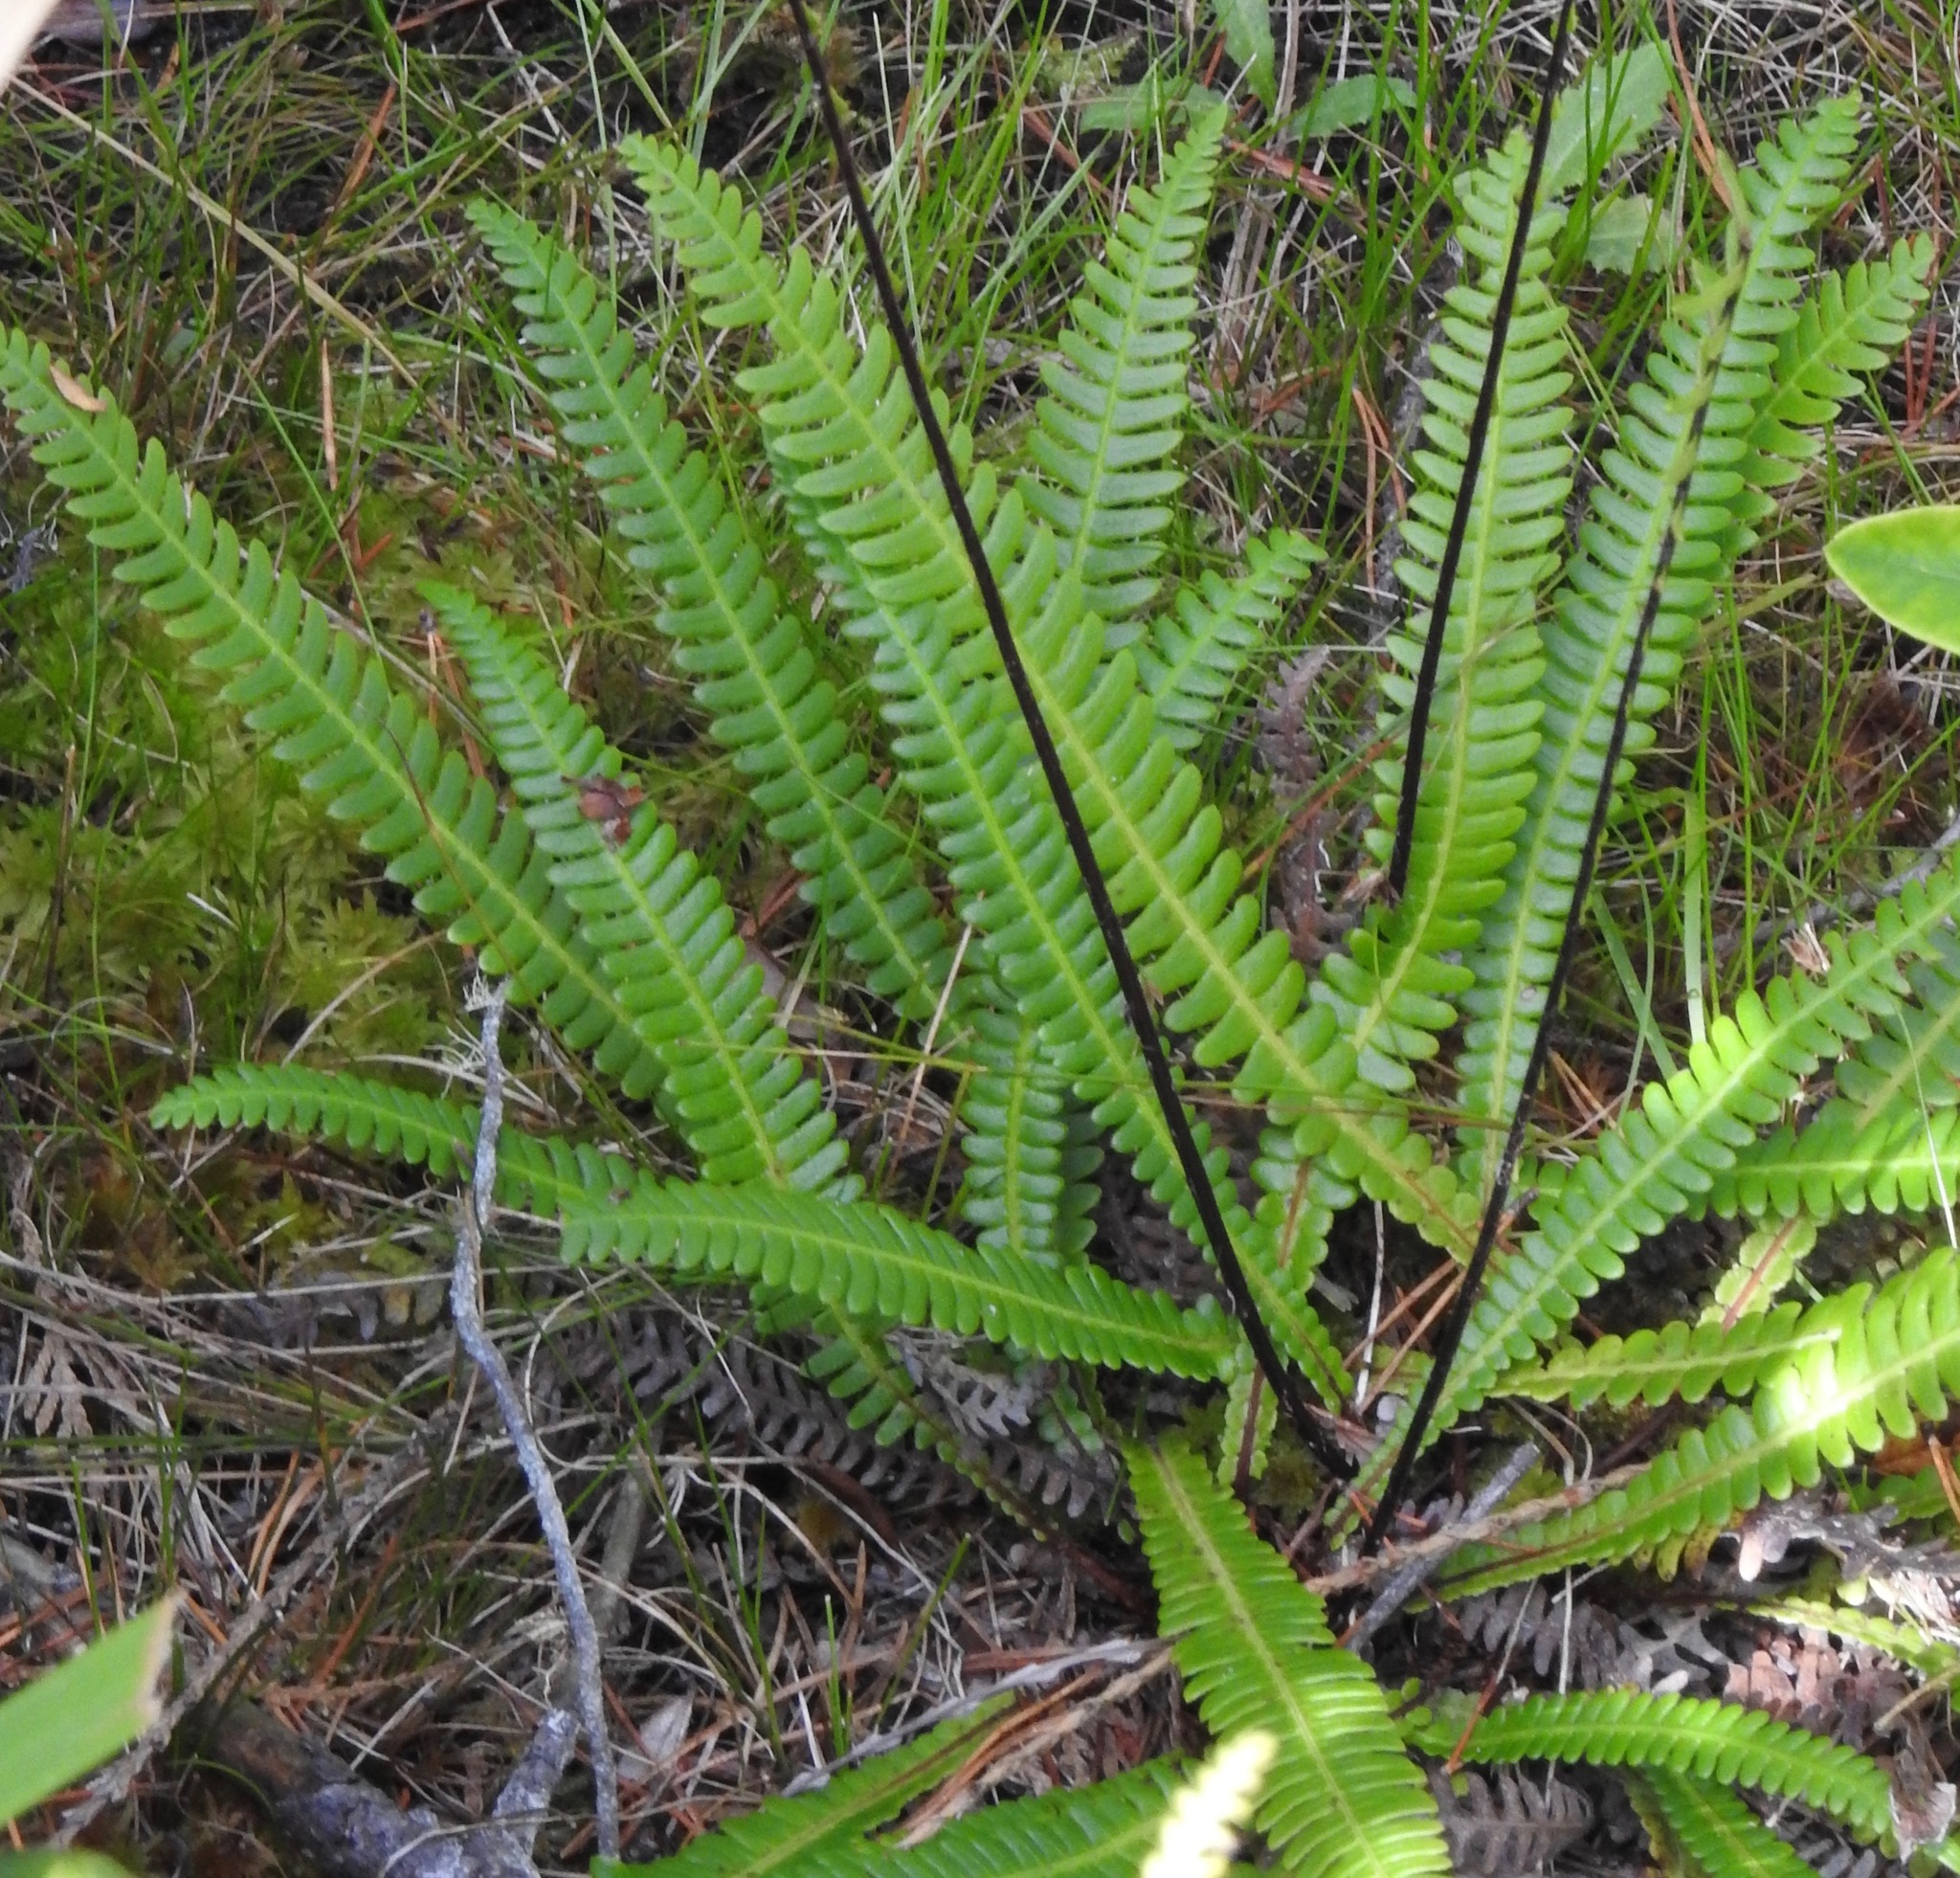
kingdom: Plantae
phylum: Tracheophyta
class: Polypodiopsida
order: Polypodiales
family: Blechnaceae
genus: Struthiopteris
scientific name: Struthiopteris spicant
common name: Deer fern
